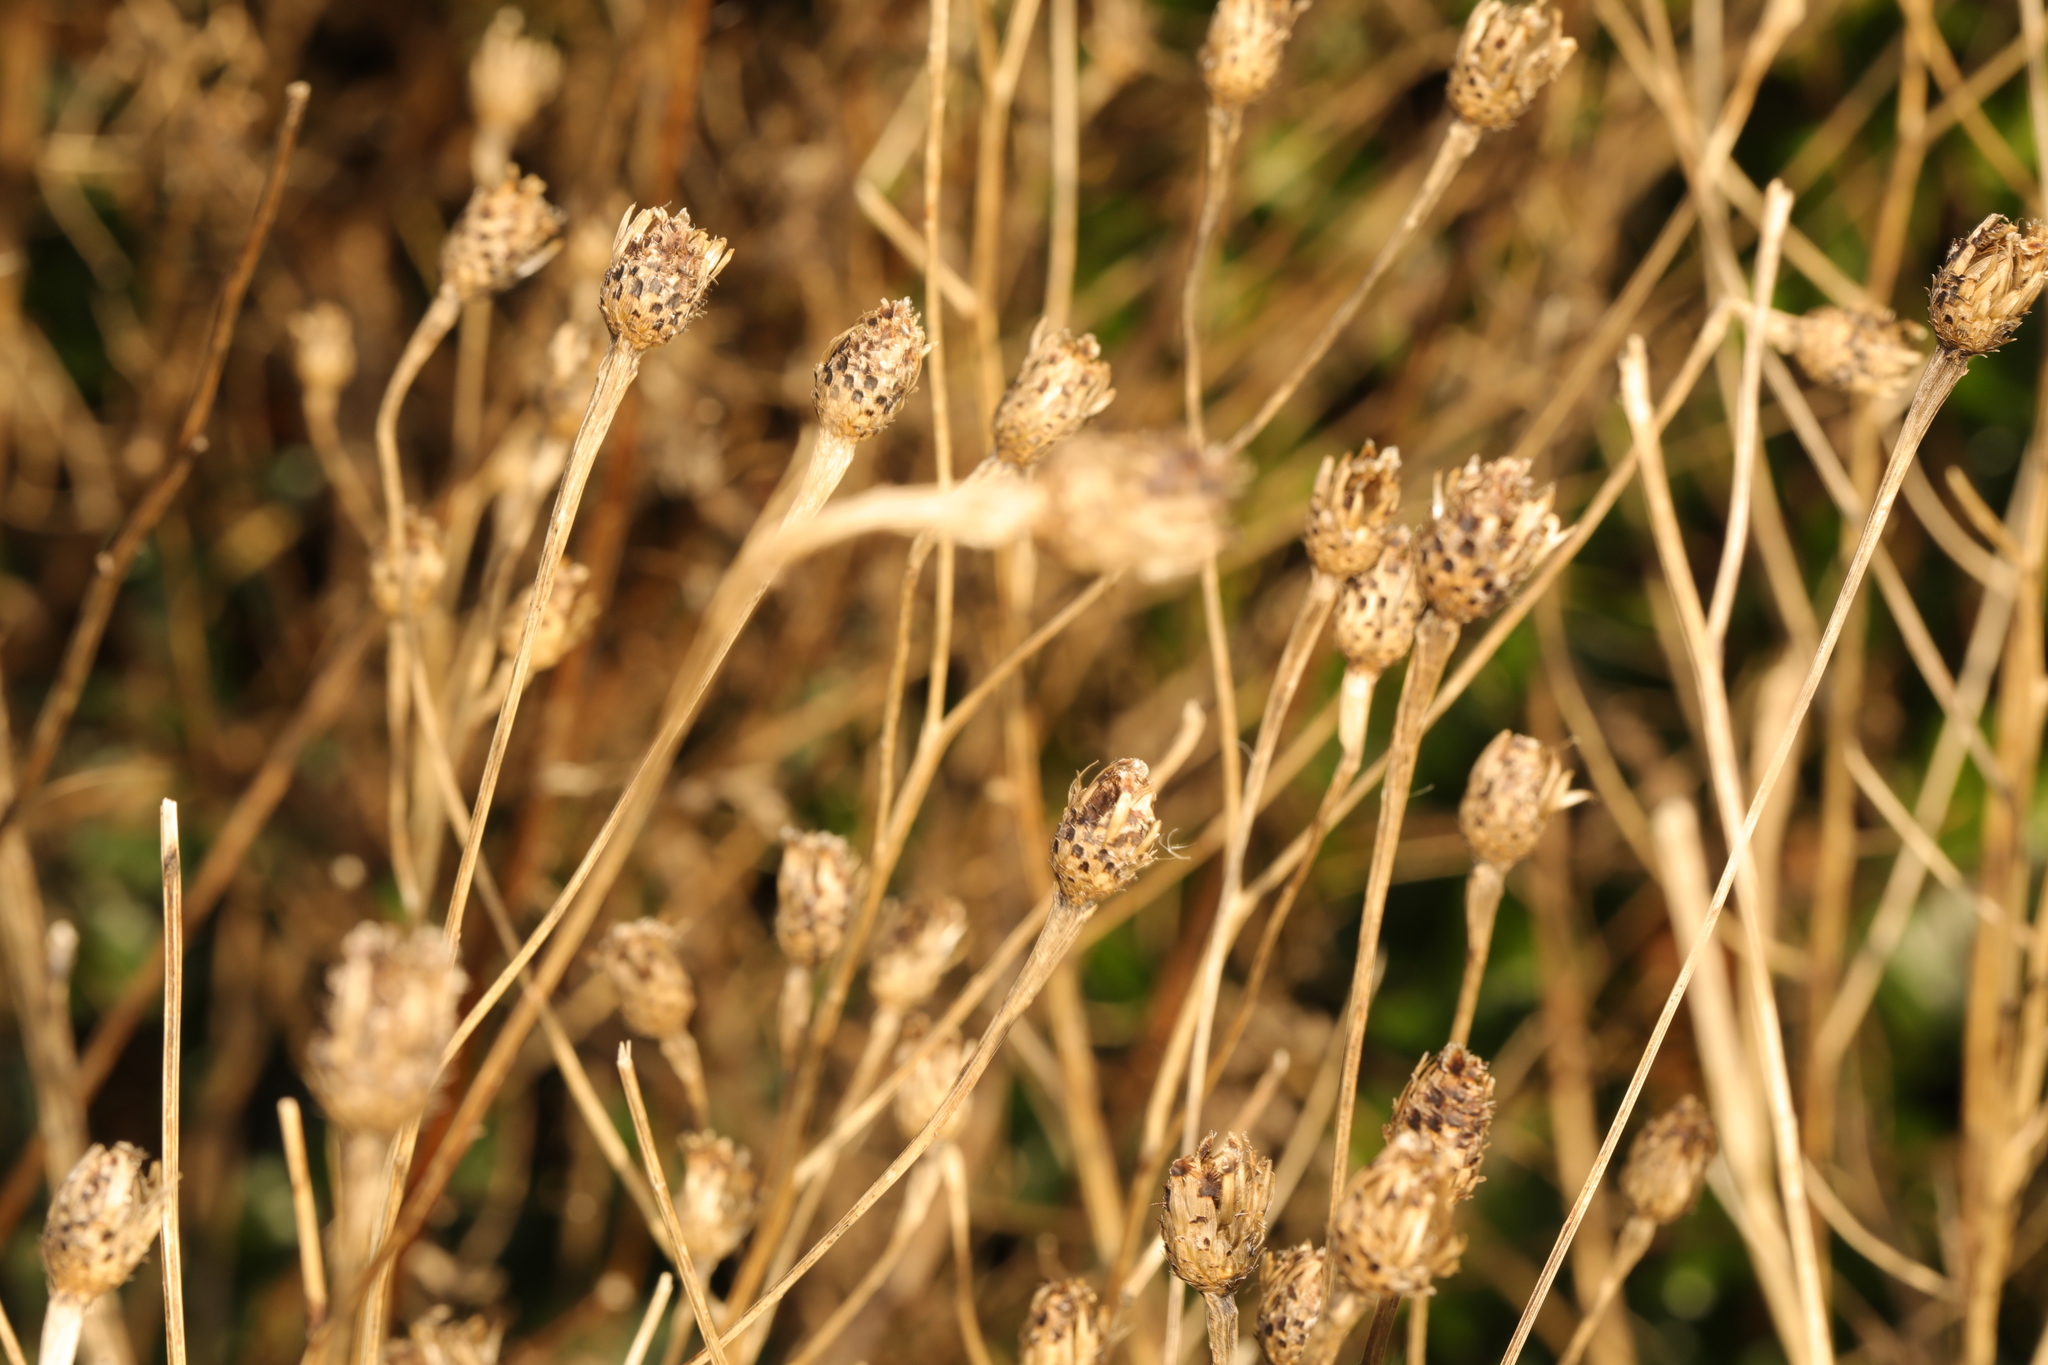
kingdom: Plantae
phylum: Tracheophyta
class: Magnoliopsida
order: Asterales
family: Asteraceae
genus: Centaurea
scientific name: Centaurea nigra
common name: Lesser knapweed
